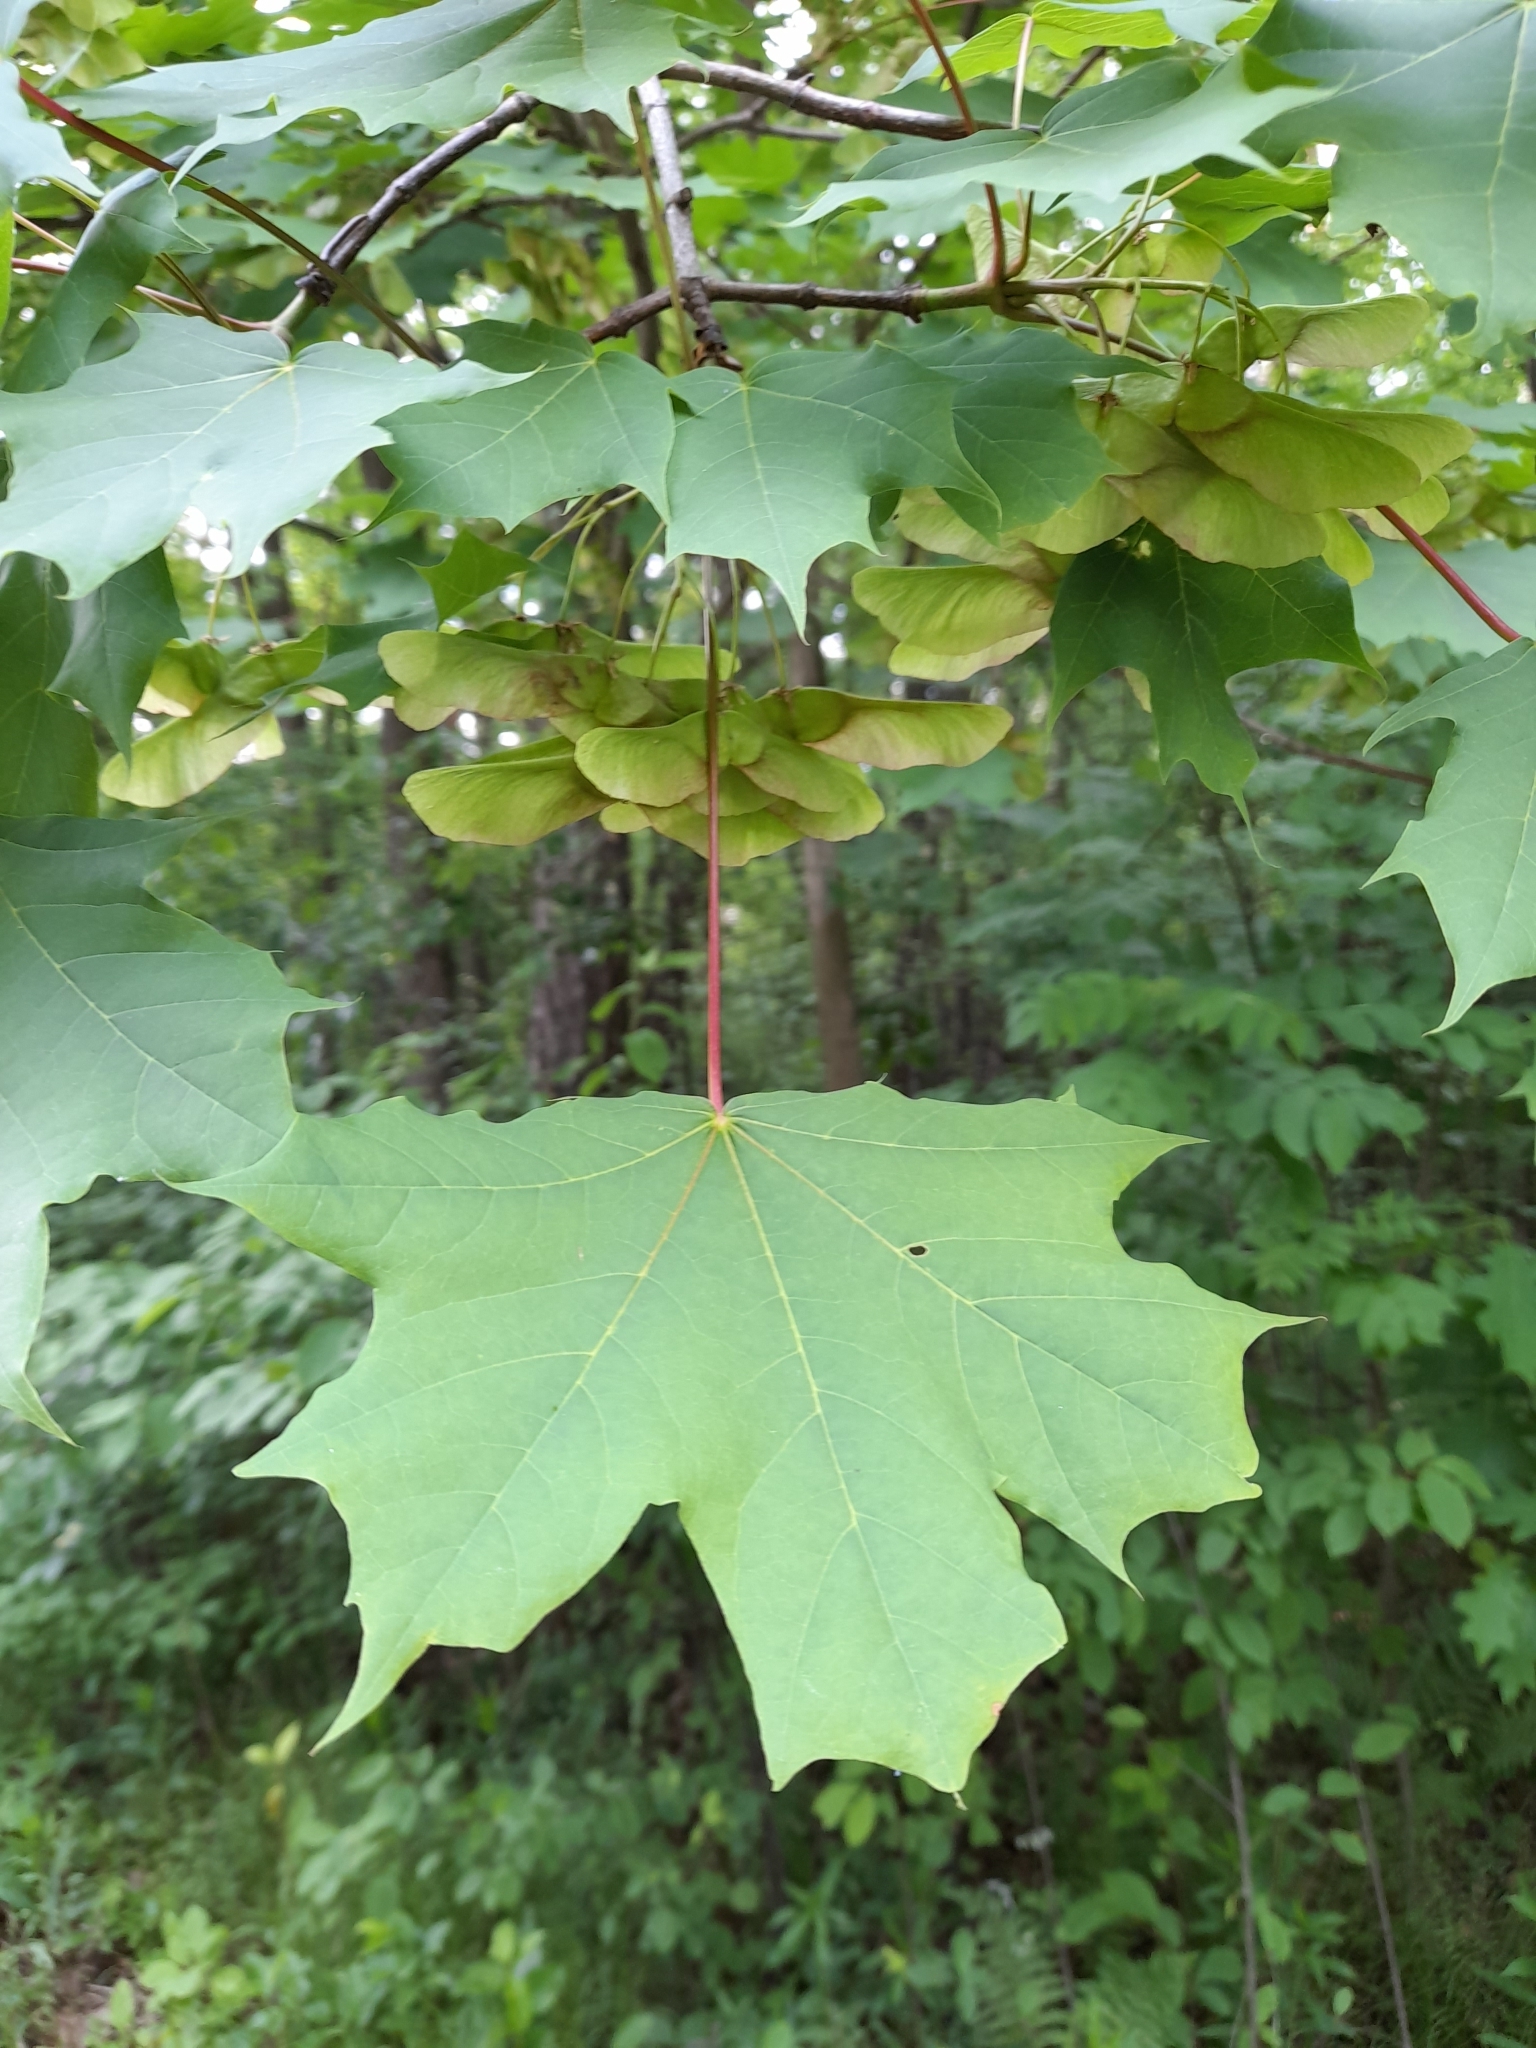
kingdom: Plantae
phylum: Tracheophyta
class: Magnoliopsida
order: Sapindales
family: Sapindaceae
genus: Acer
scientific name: Acer platanoides
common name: Norway maple
